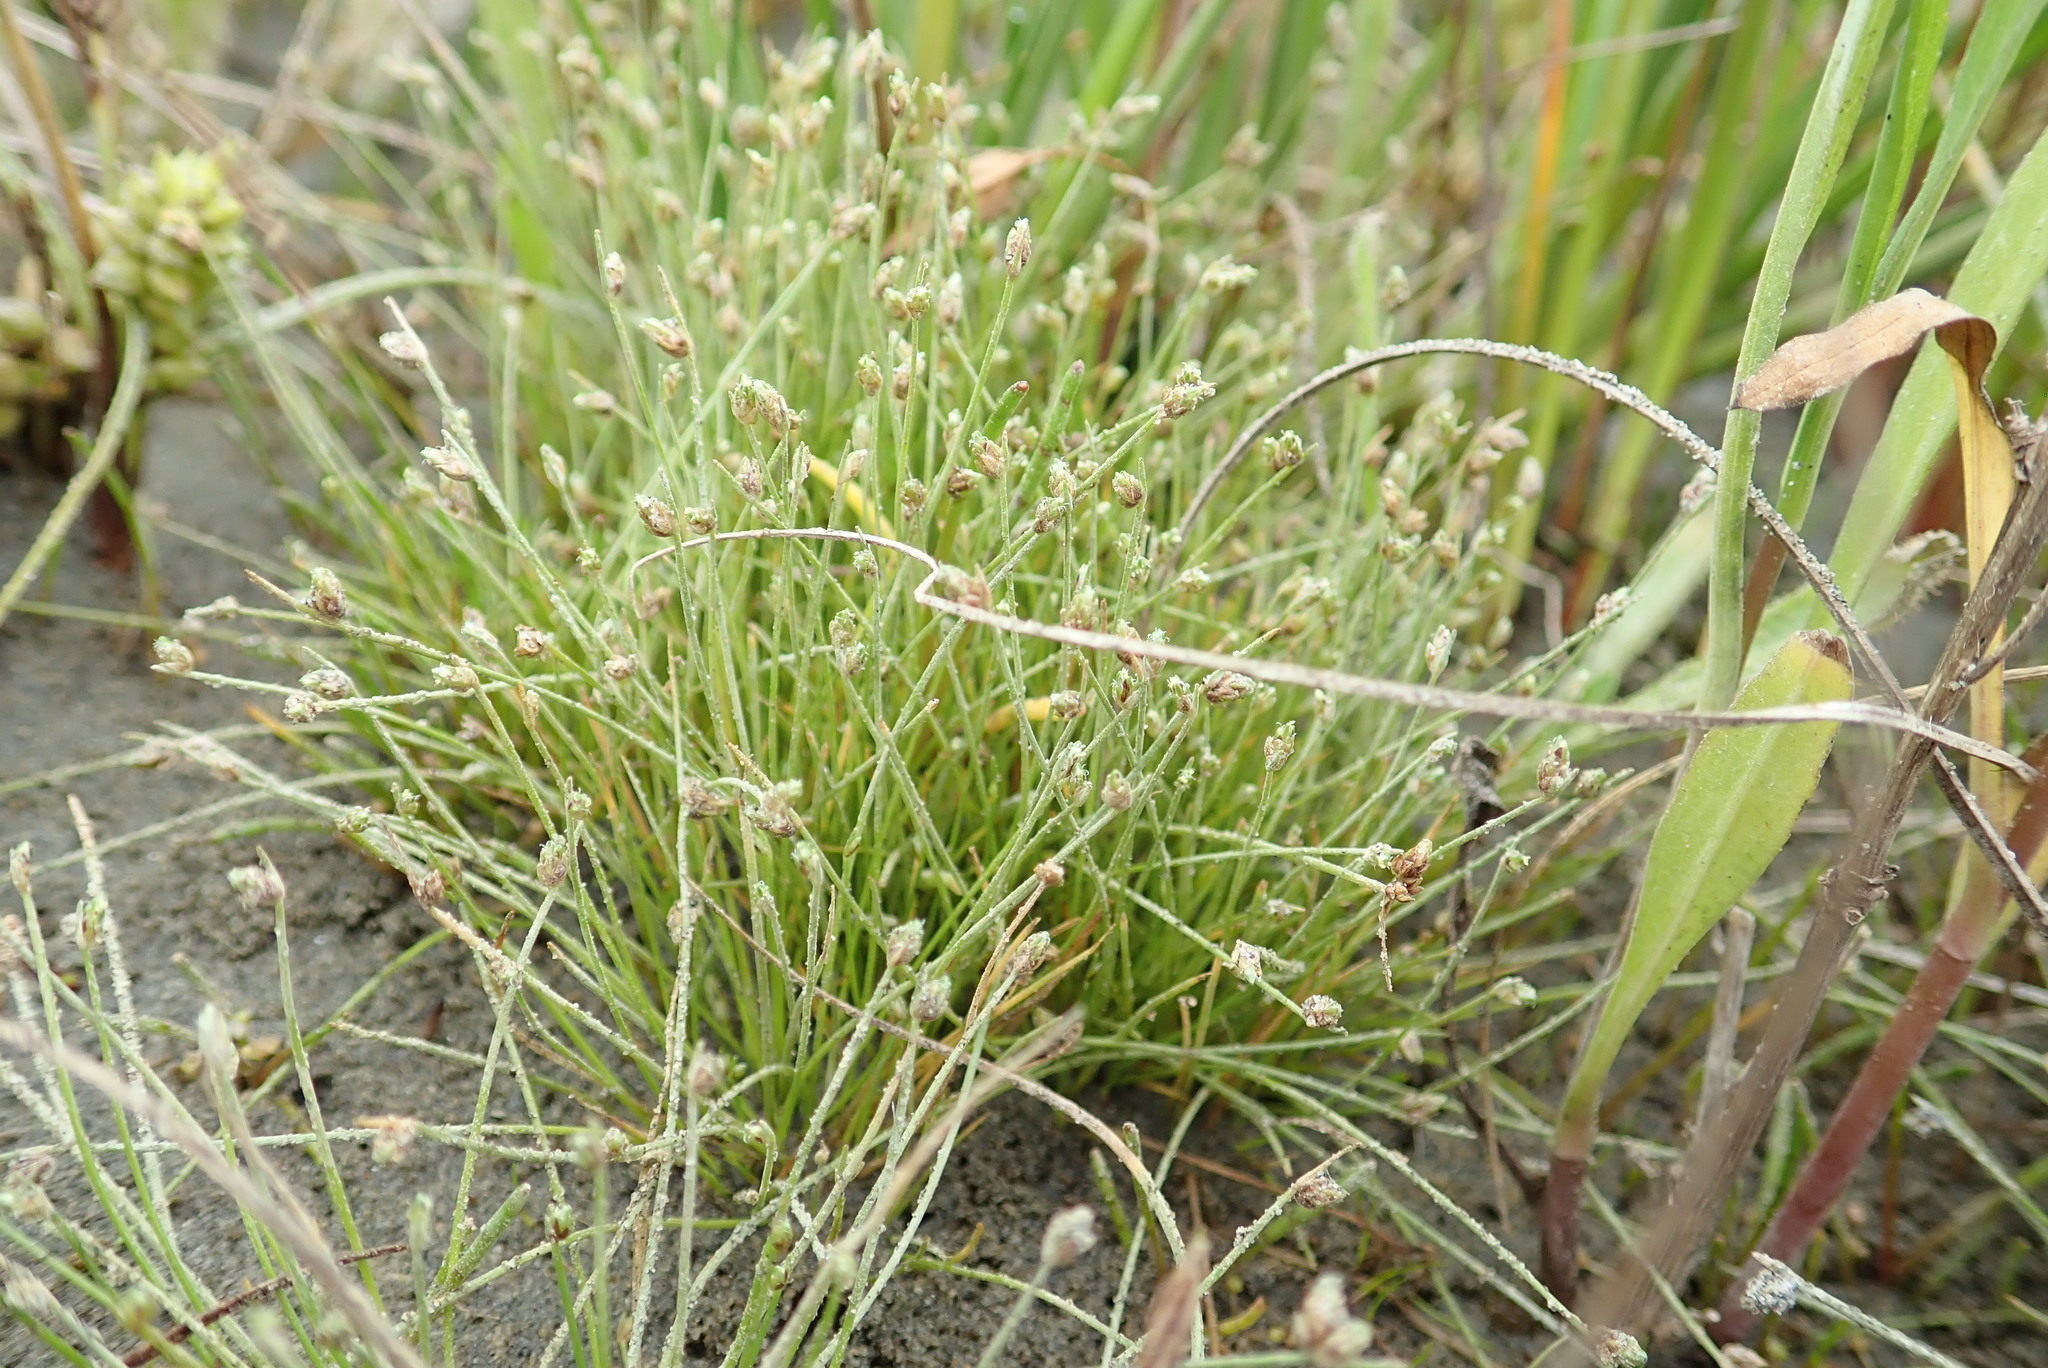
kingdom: Plantae
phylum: Tracheophyta
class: Liliopsida
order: Poales
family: Cyperaceae
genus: Isolepis
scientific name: Isolepis cernua
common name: Slender club-rush
